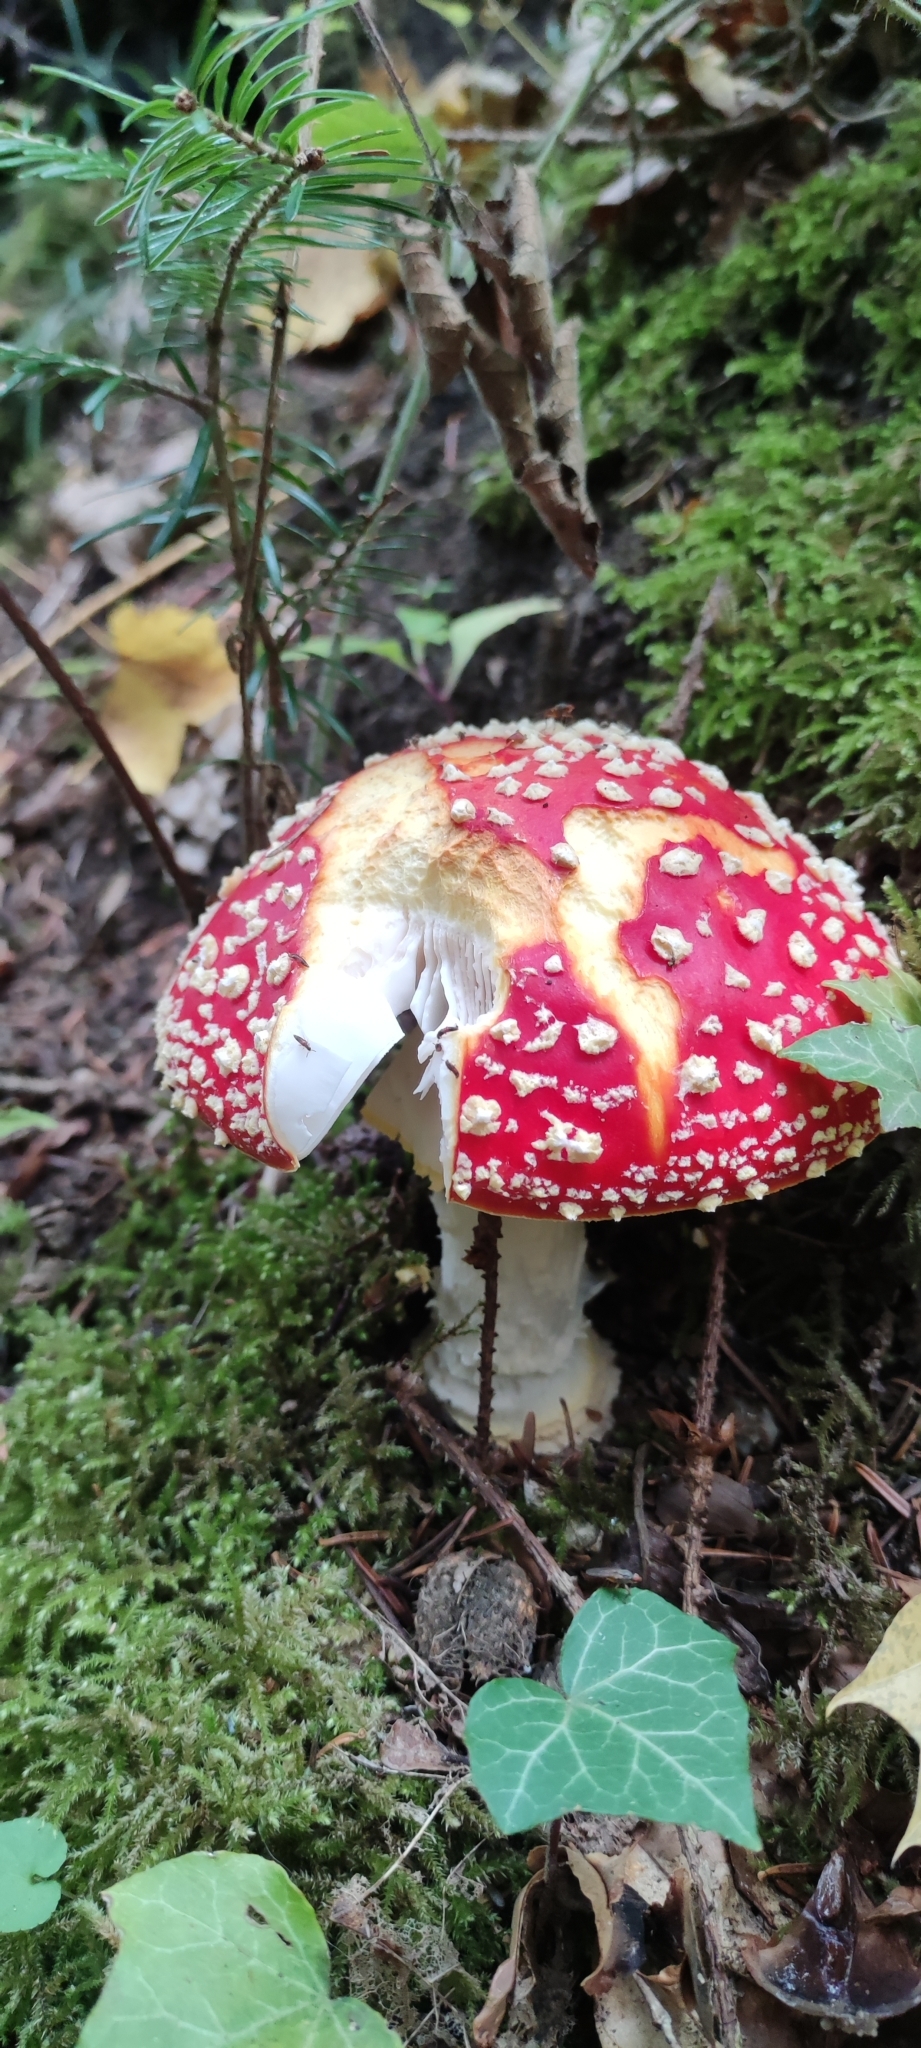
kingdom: Fungi
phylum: Basidiomycota
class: Agaricomycetes
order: Agaricales
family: Amanitaceae
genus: Amanita
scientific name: Amanita muscaria
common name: Fly agaric
